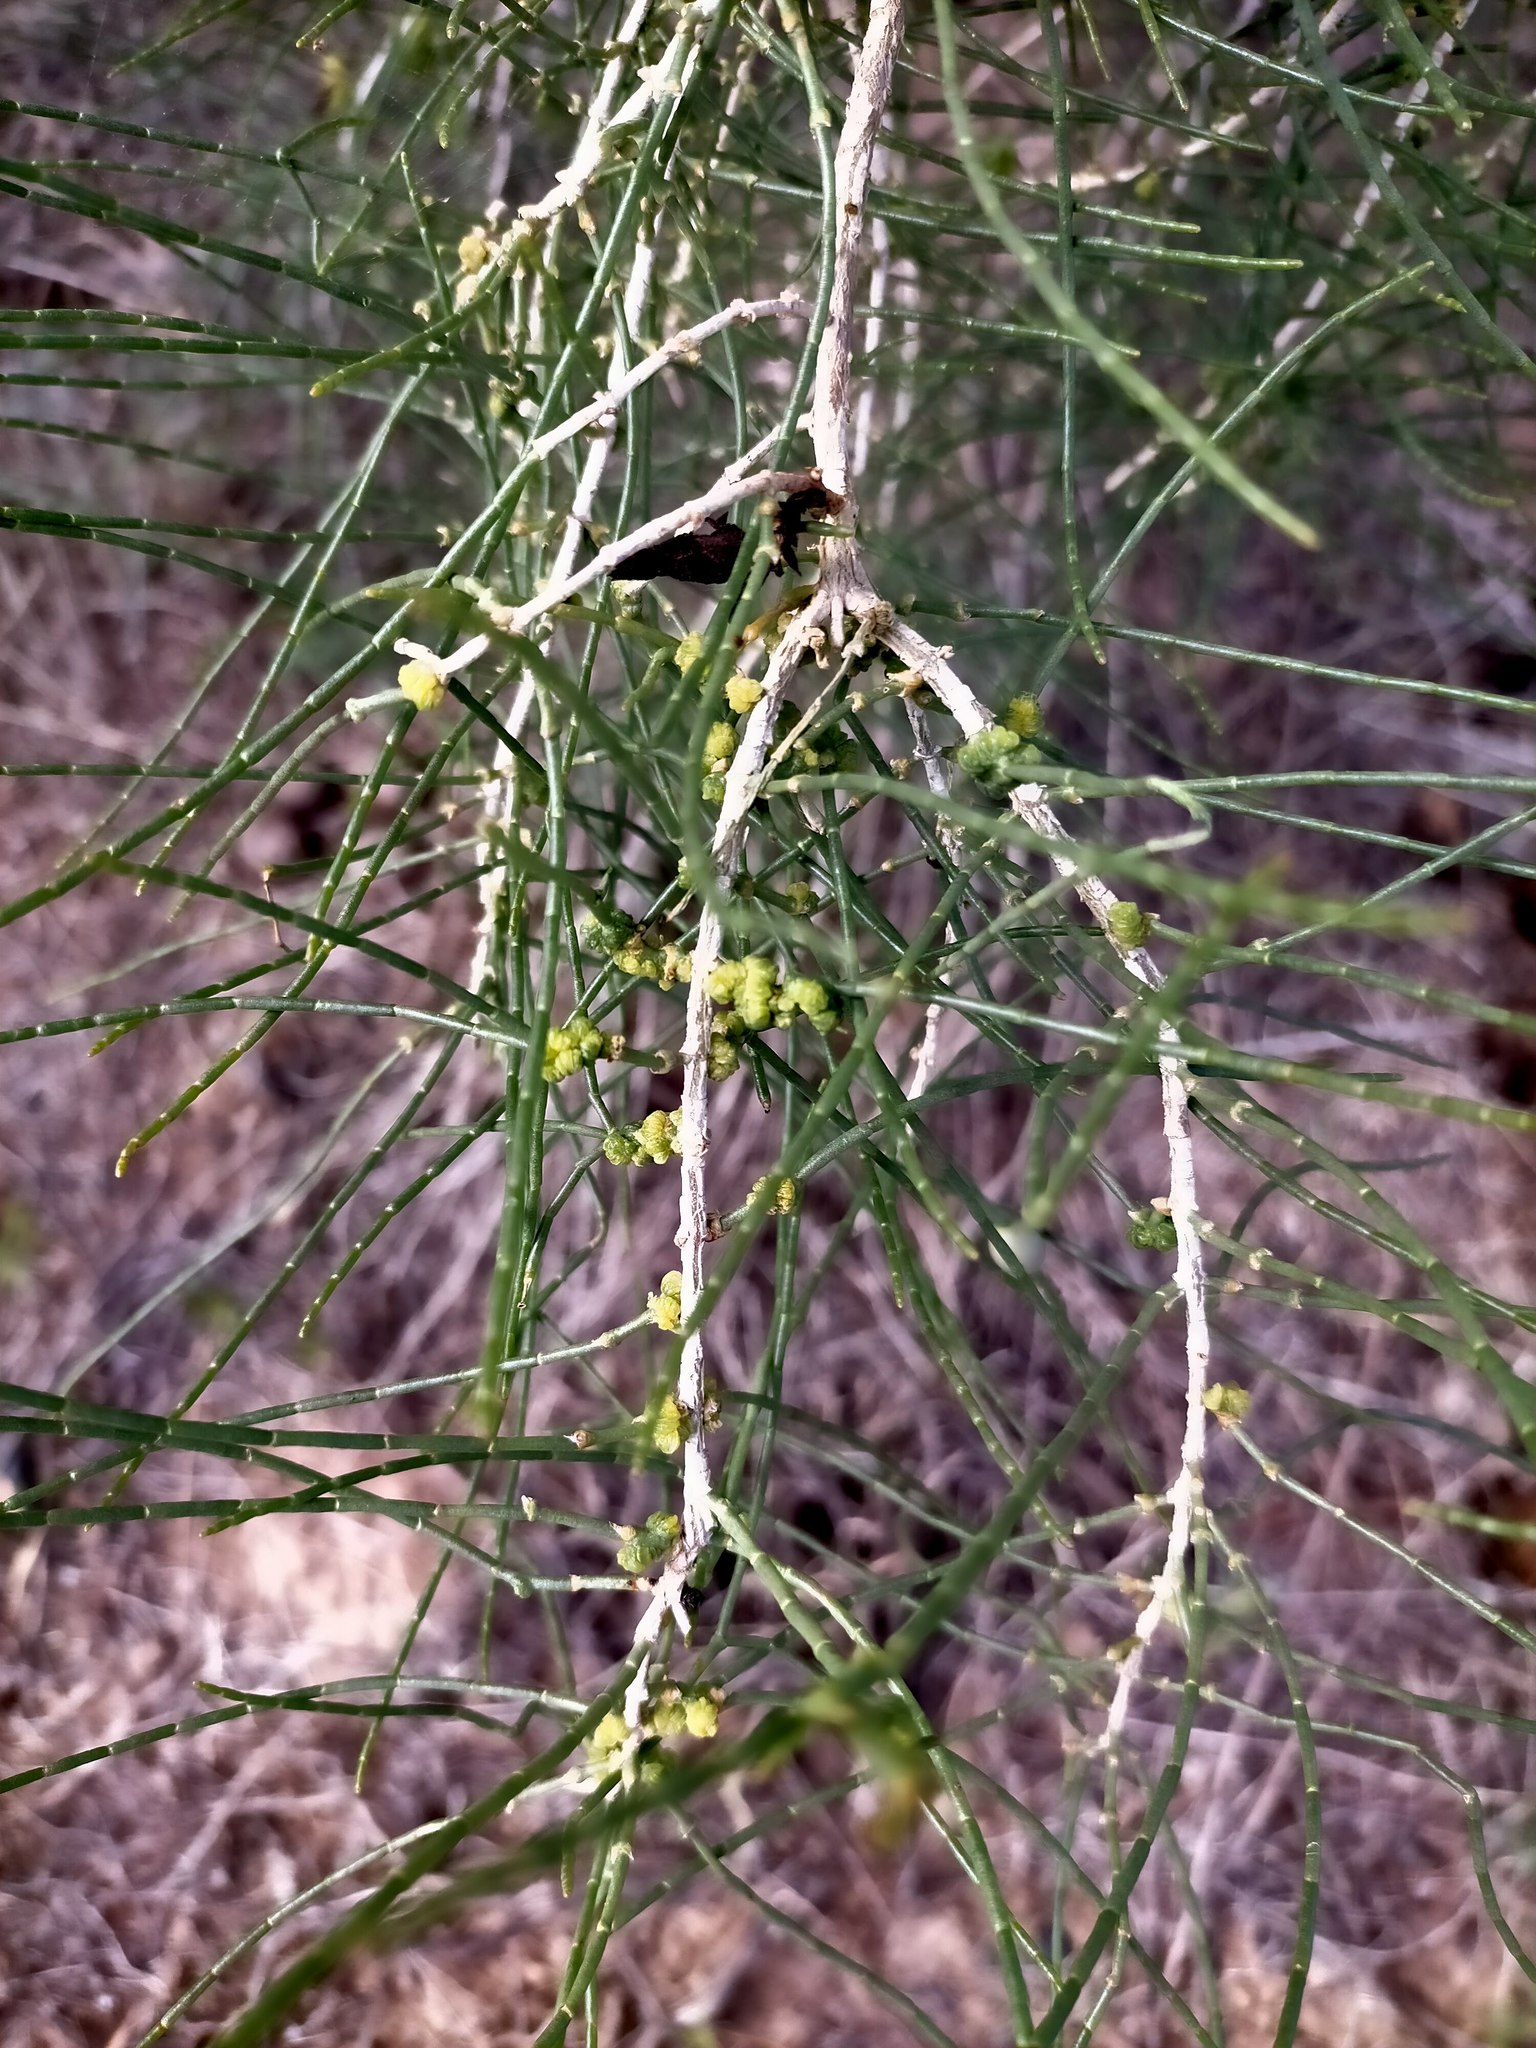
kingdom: Plantae
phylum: Tracheophyta
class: Magnoliopsida
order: Caryophyllales
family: Amaranthaceae
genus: Haloxylon
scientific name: Haloxylon ammodendron
